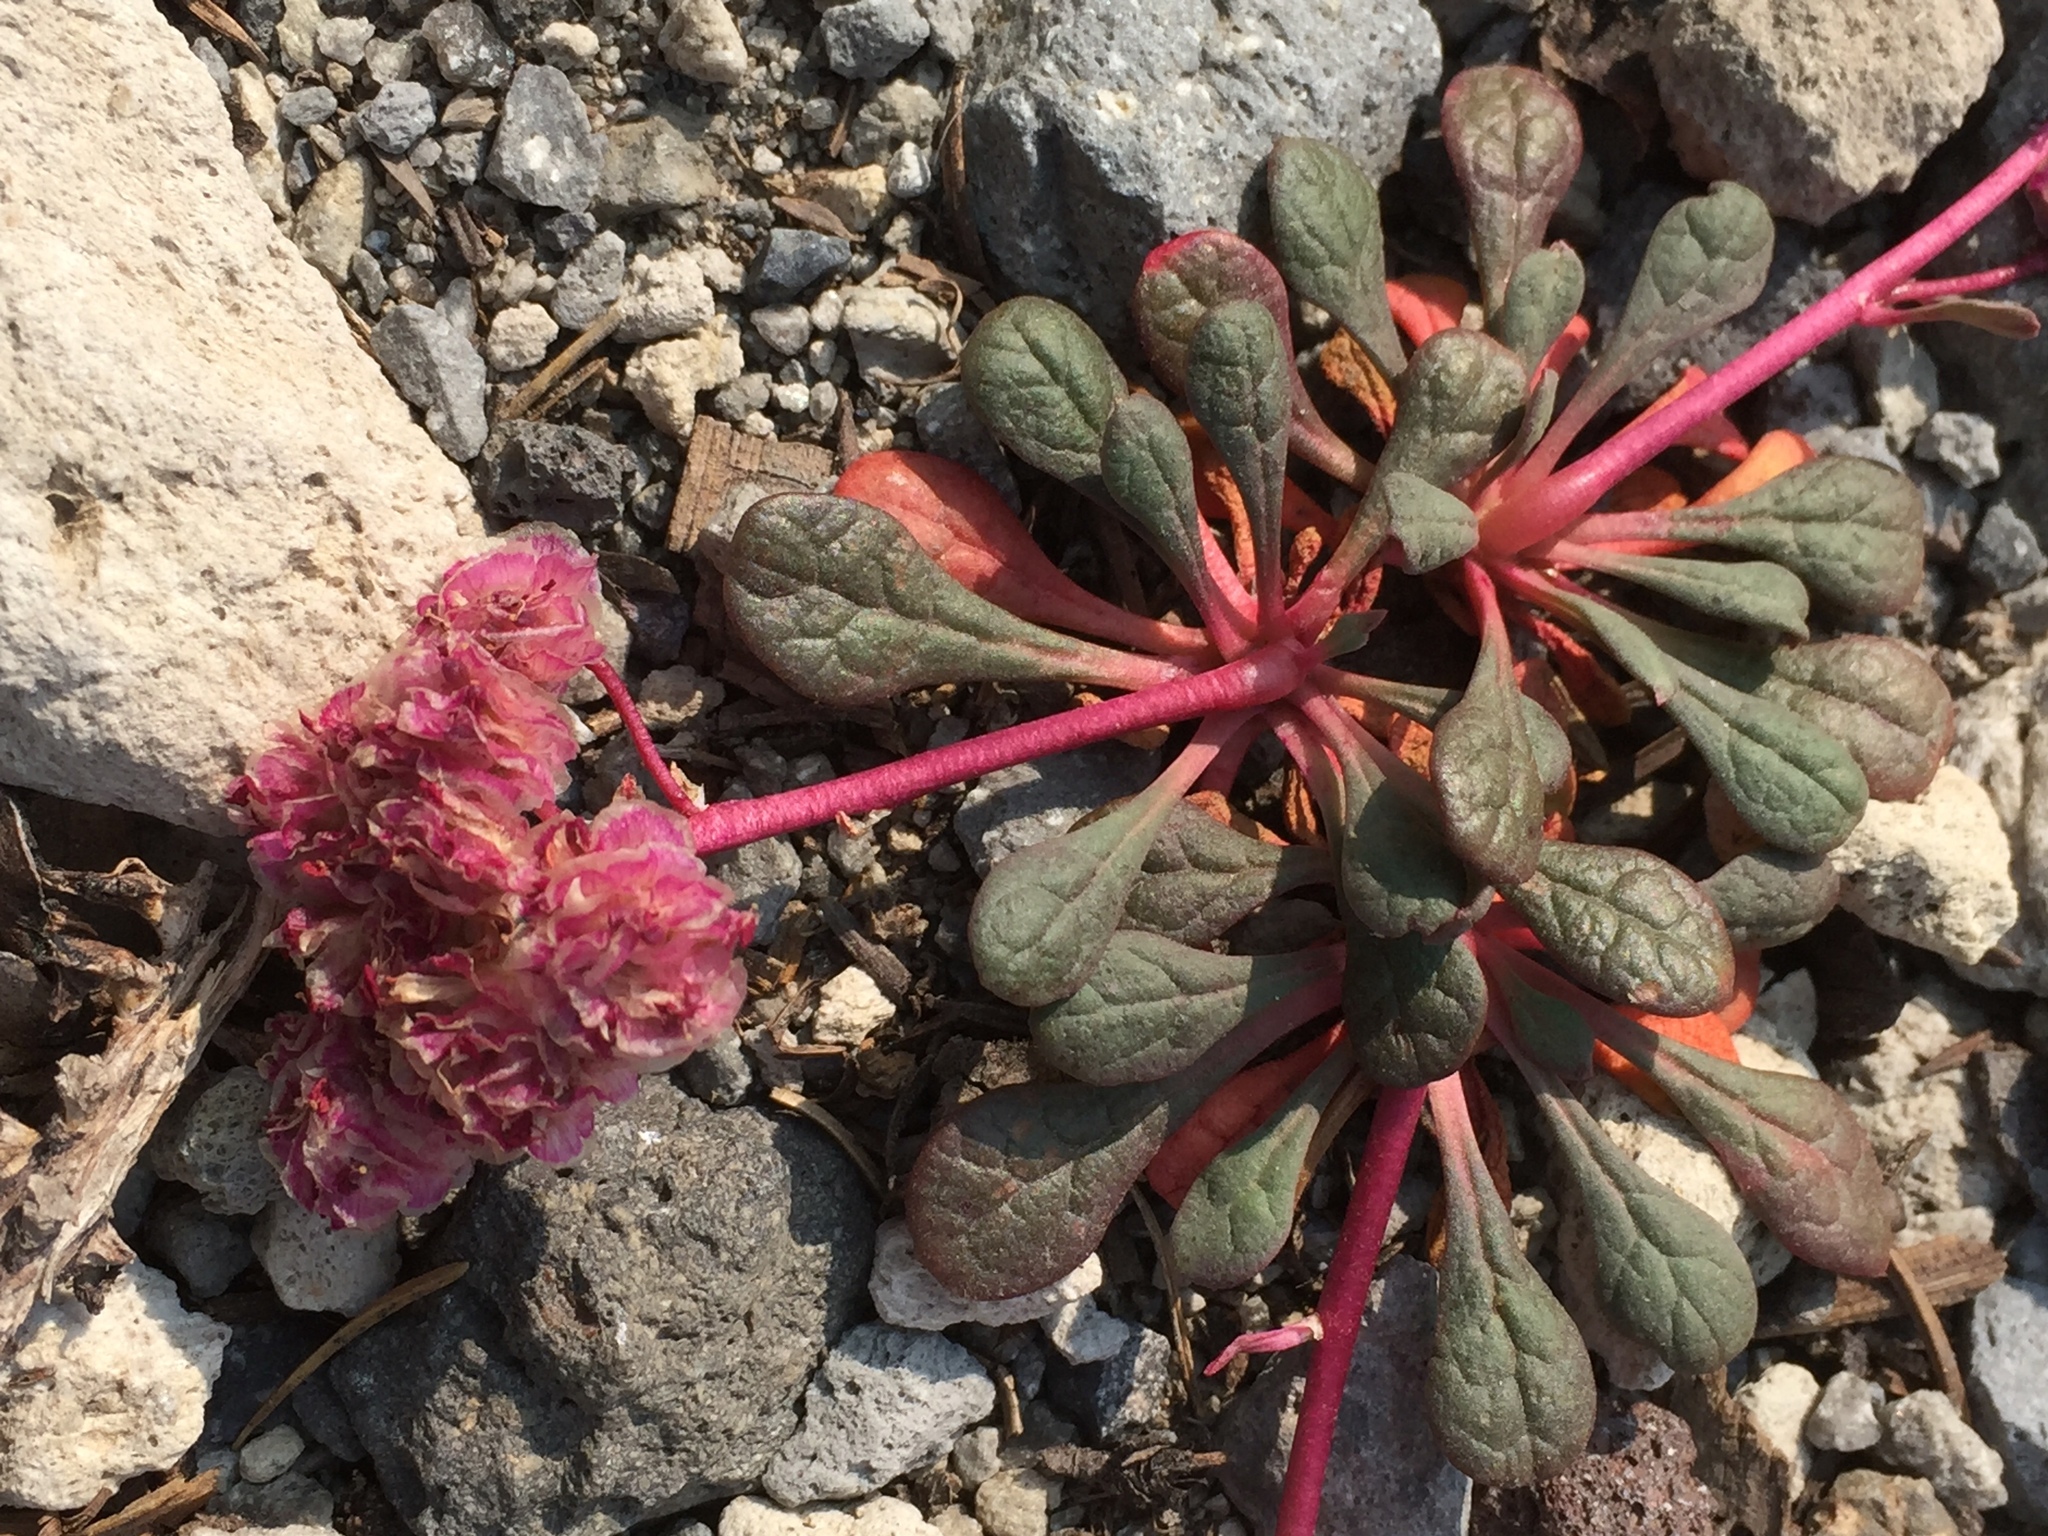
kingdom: Plantae
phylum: Tracheophyta
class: Magnoliopsida
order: Caryophyllales
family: Montiaceae
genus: Calyptridium
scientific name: Calyptridium umbellatum
